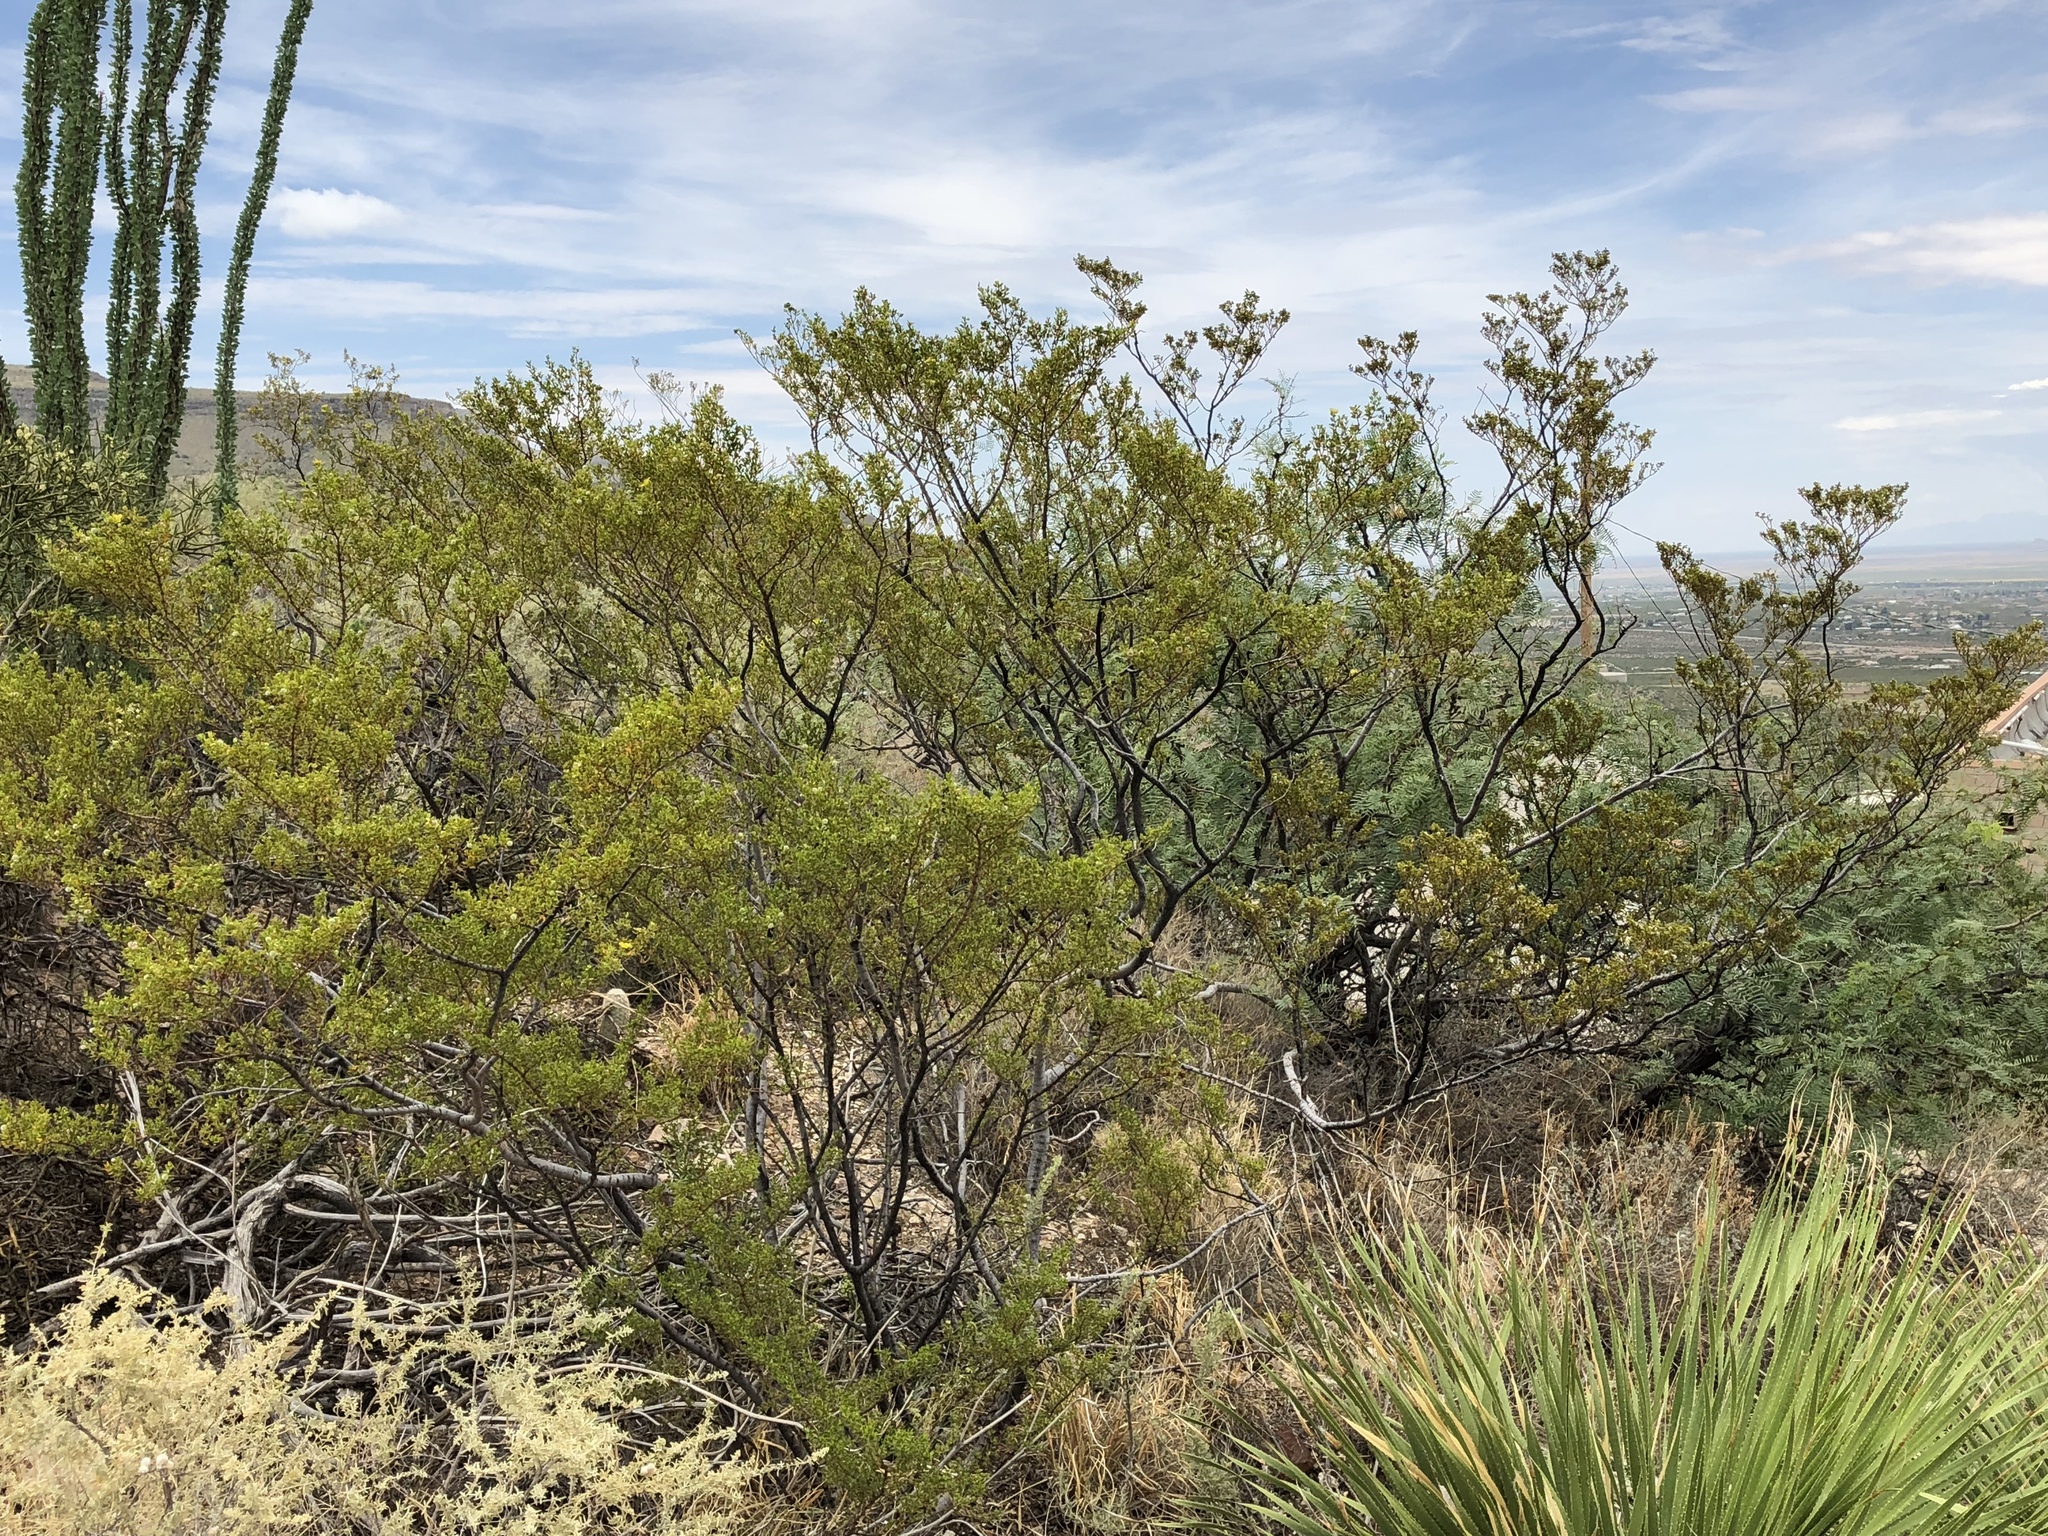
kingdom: Plantae
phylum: Tracheophyta
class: Magnoliopsida
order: Zygophyllales
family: Zygophyllaceae
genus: Larrea
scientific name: Larrea tridentata
